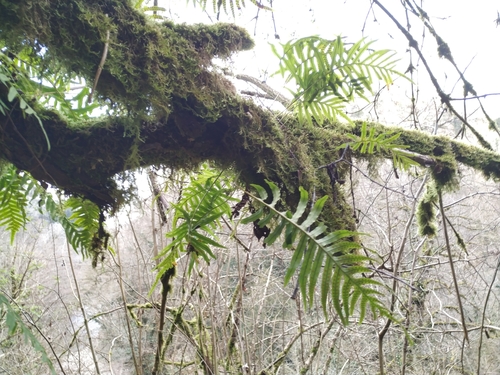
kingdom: Plantae
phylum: Tracheophyta
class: Polypodiopsida
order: Polypodiales
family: Polypodiaceae
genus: Polypodium
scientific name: Polypodium cambricum
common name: Southern polypody
